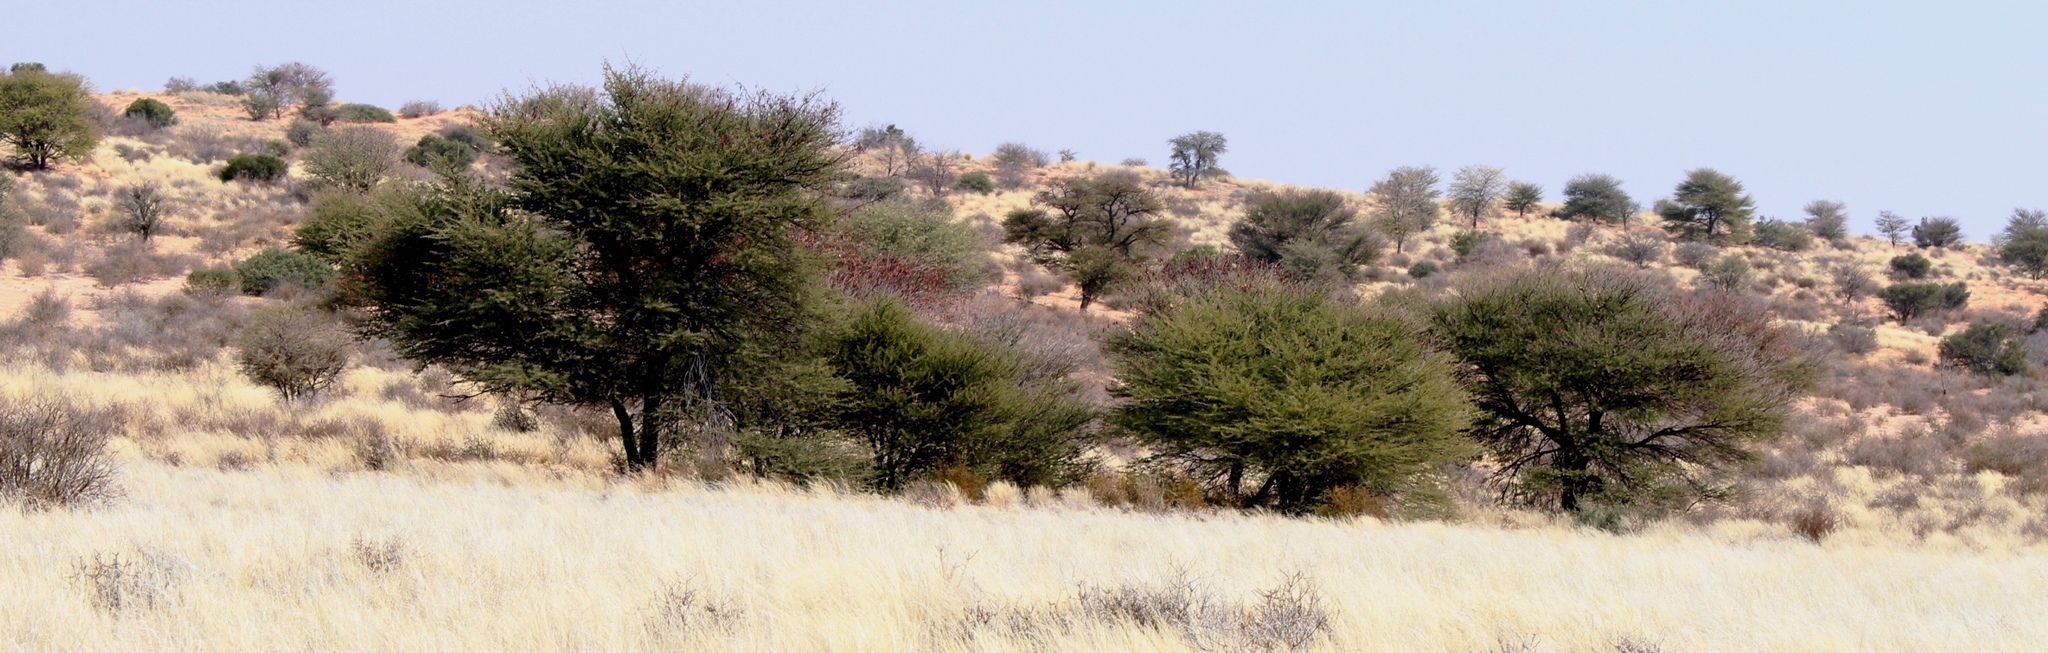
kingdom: Plantae
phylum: Tracheophyta
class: Magnoliopsida
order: Fabales
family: Fabaceae
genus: Vachellia
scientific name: Vachellia luederitzii
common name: Bastard umbrella thorn
